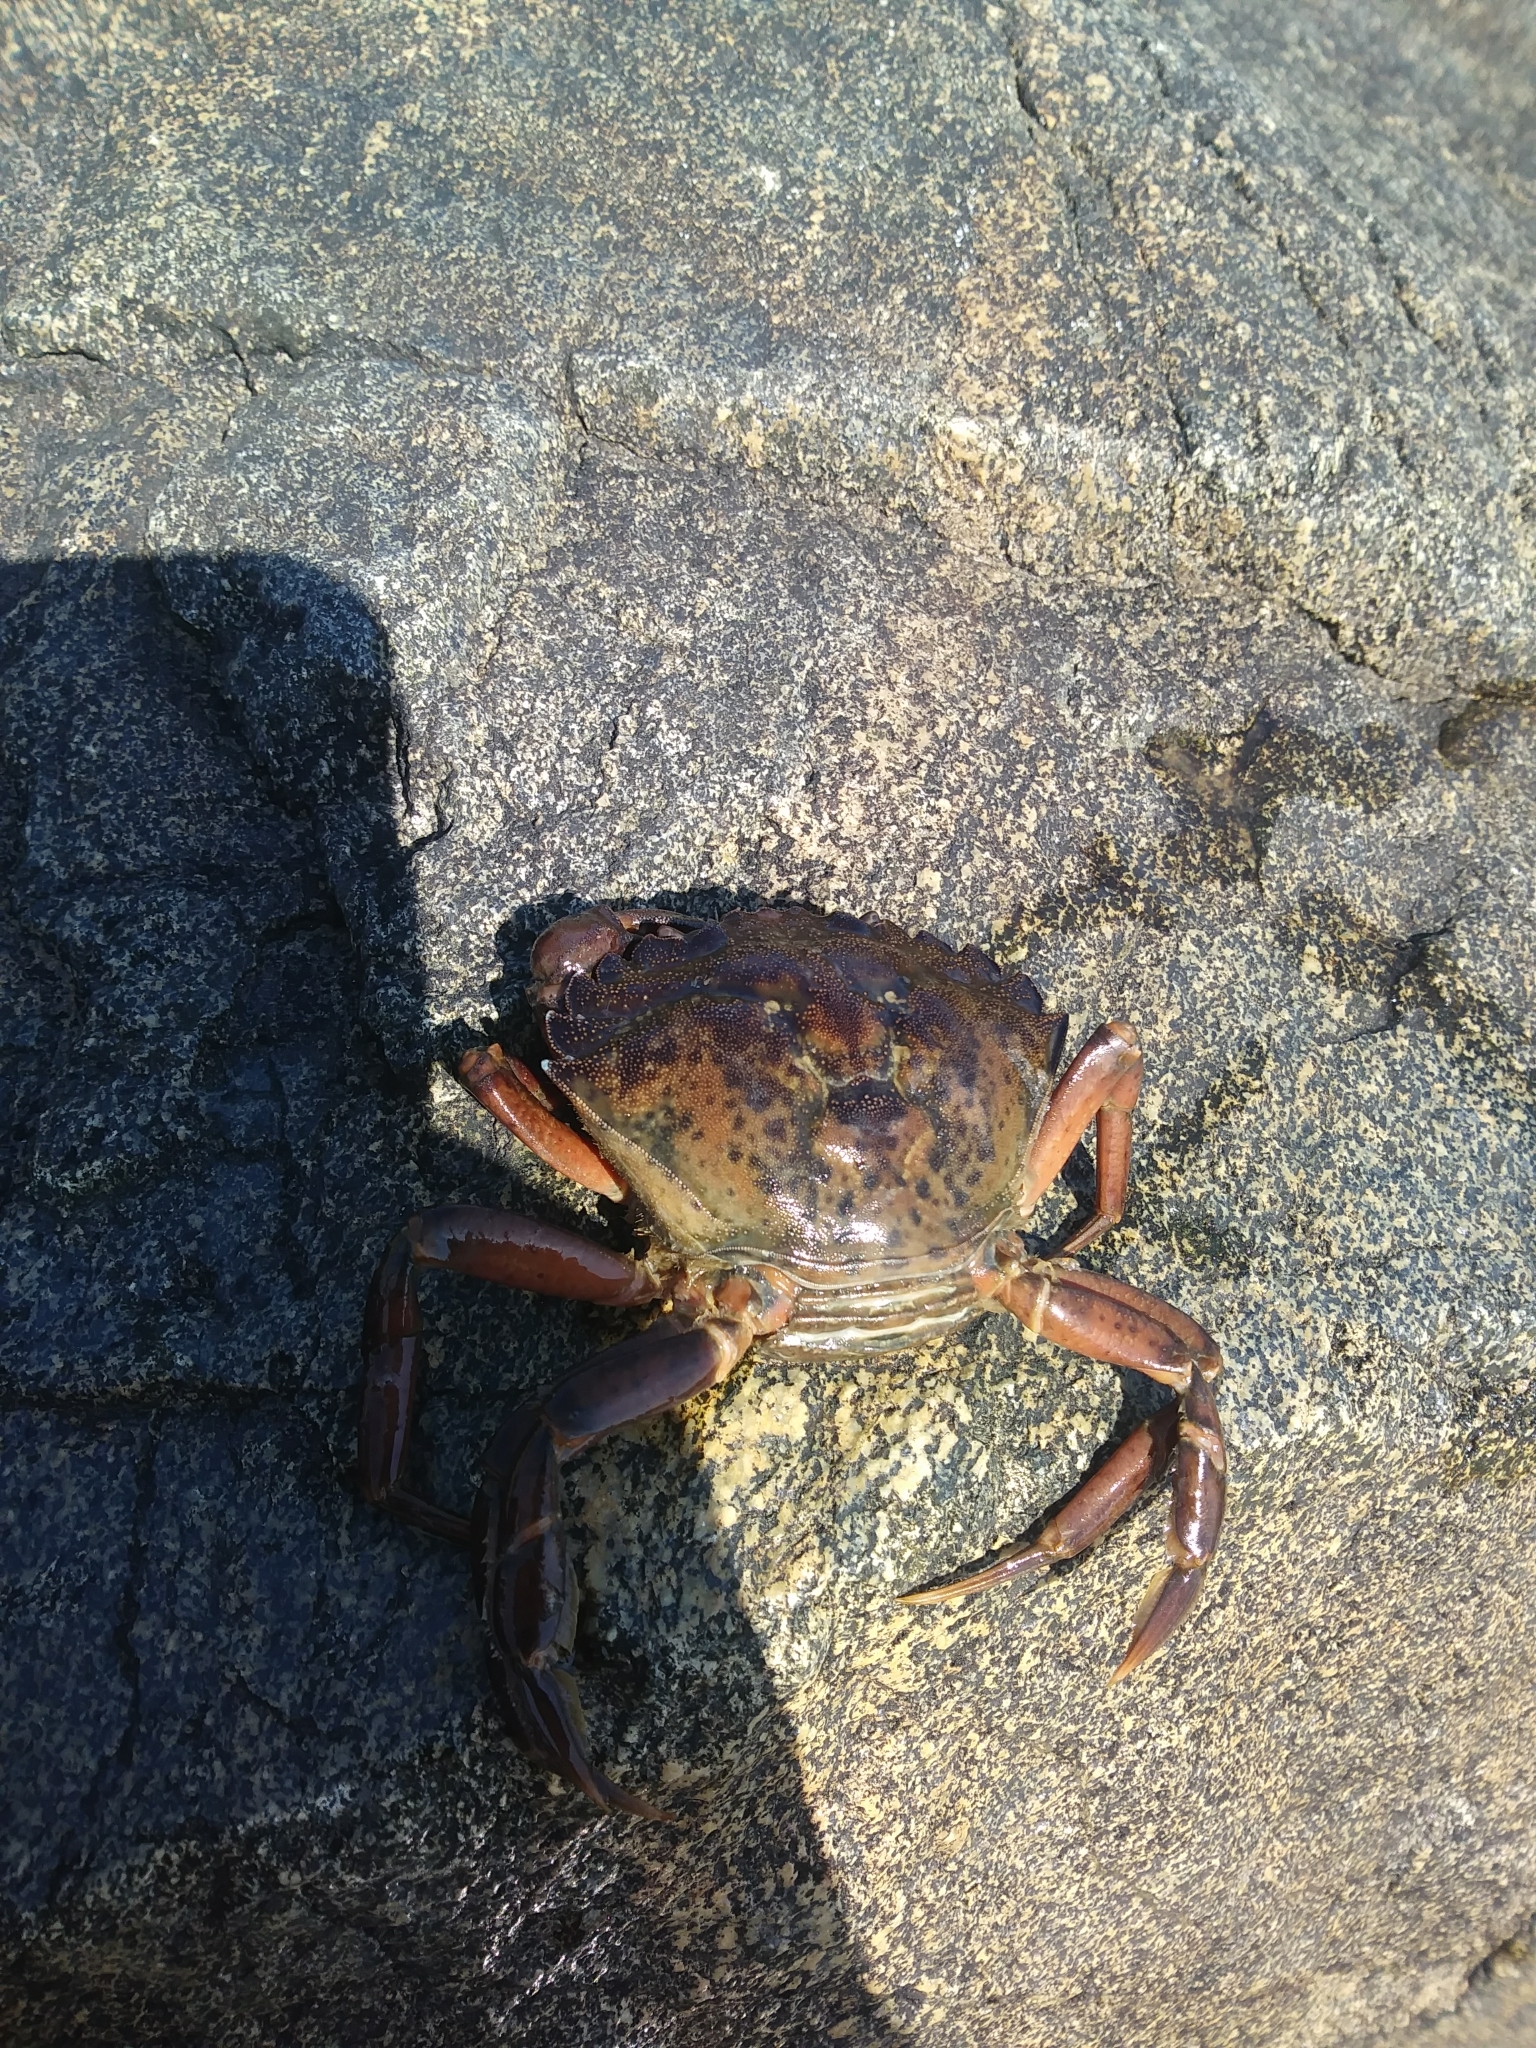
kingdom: Animalia
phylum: Arthropoda
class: Malacostraca
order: Decapoda
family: Carcinidae
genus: Carcinus
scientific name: Carcinus maenas
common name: European green crab
